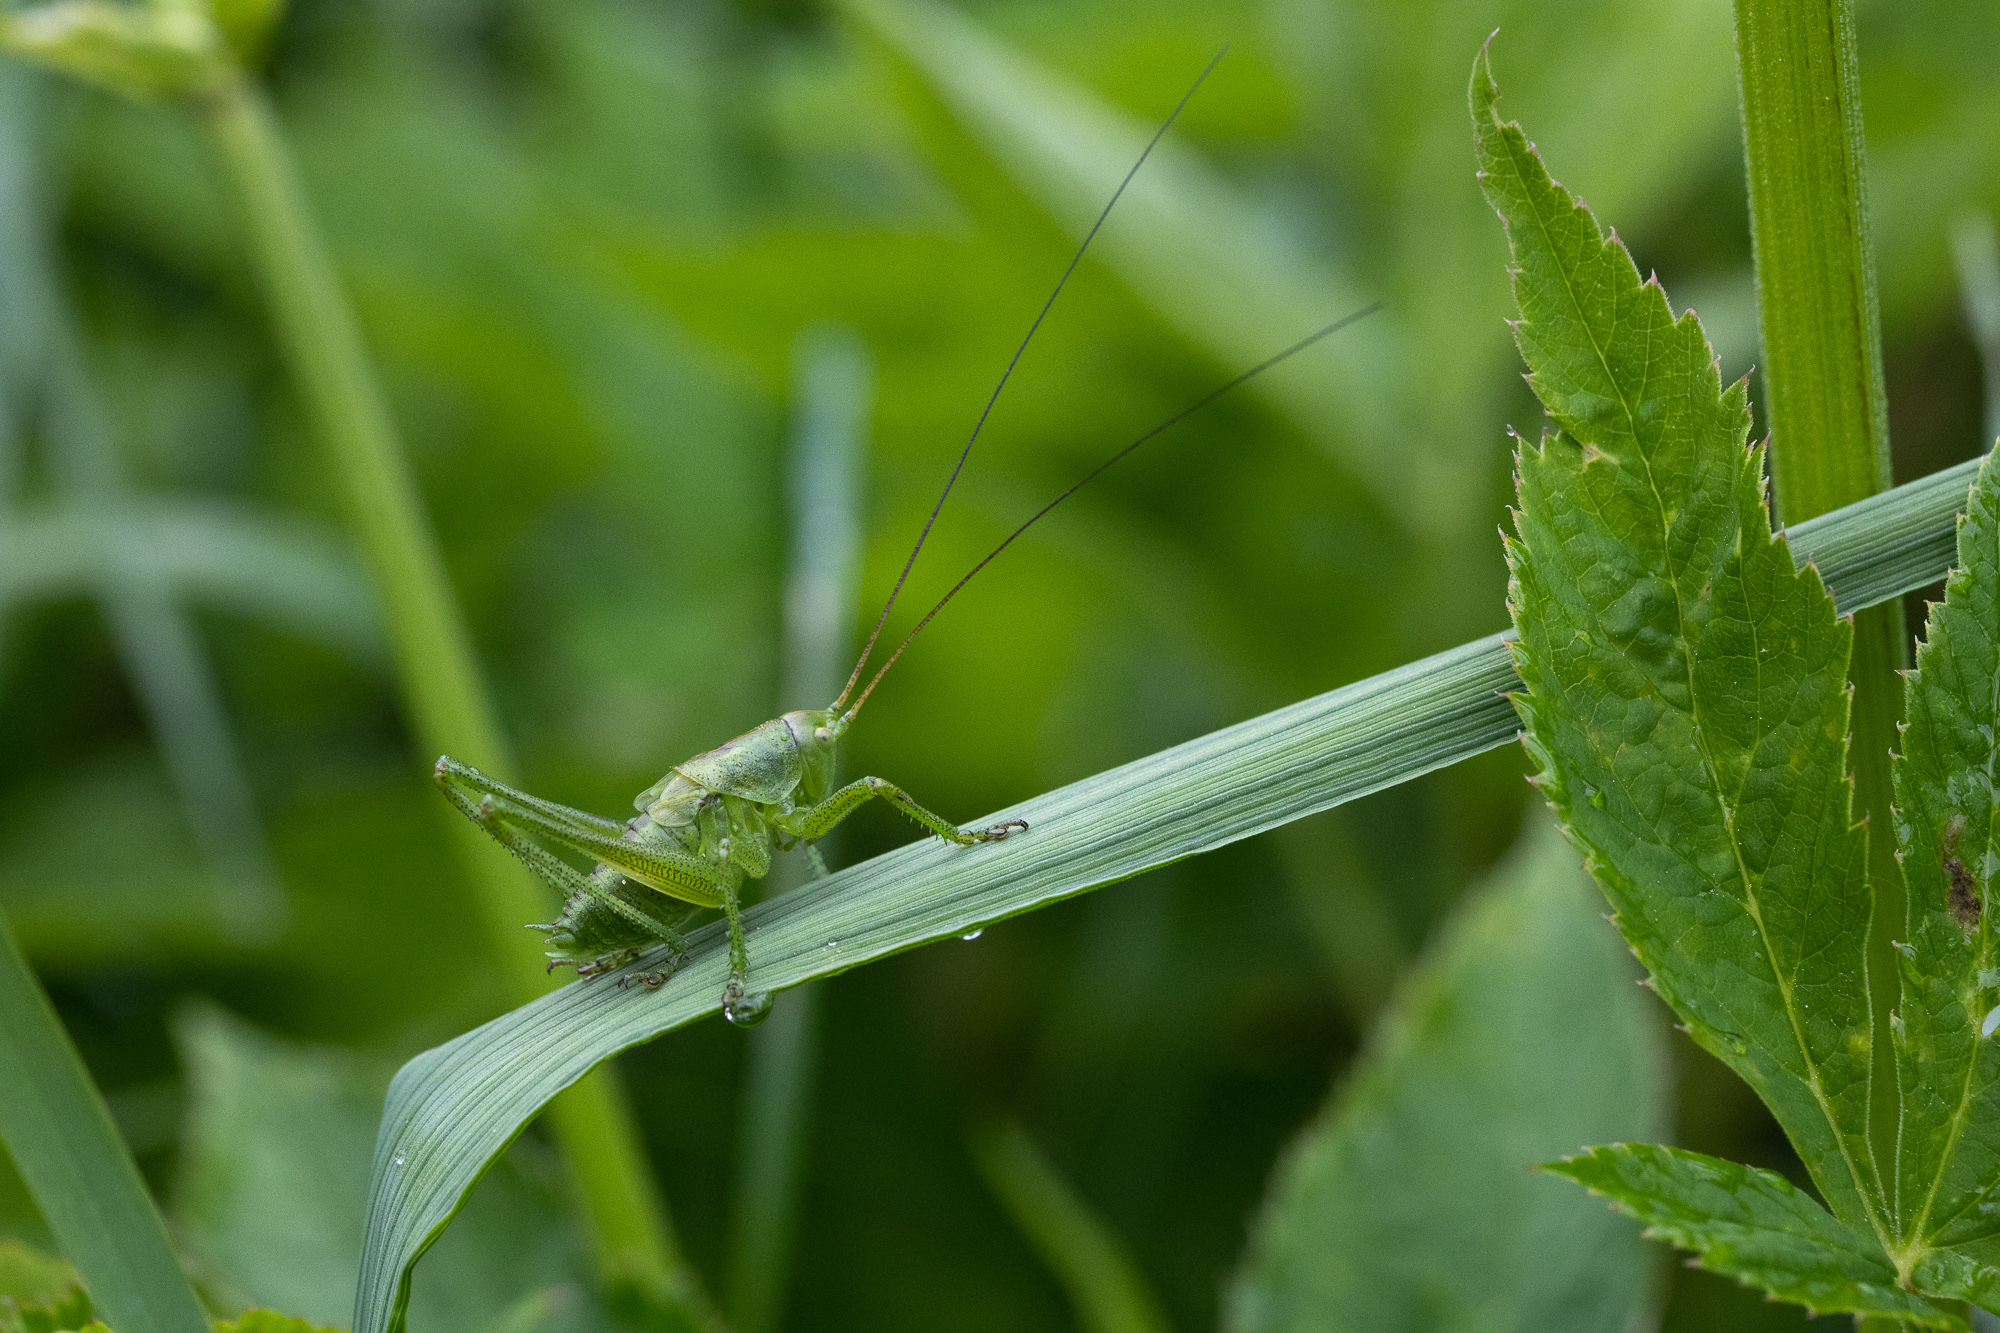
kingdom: Animalia
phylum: Arthropoda
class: Insecta
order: Orthoptera
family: Tettigoniidae
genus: Tettigonia
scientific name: Tettigonia cantans
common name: Upland green bush-cricket
